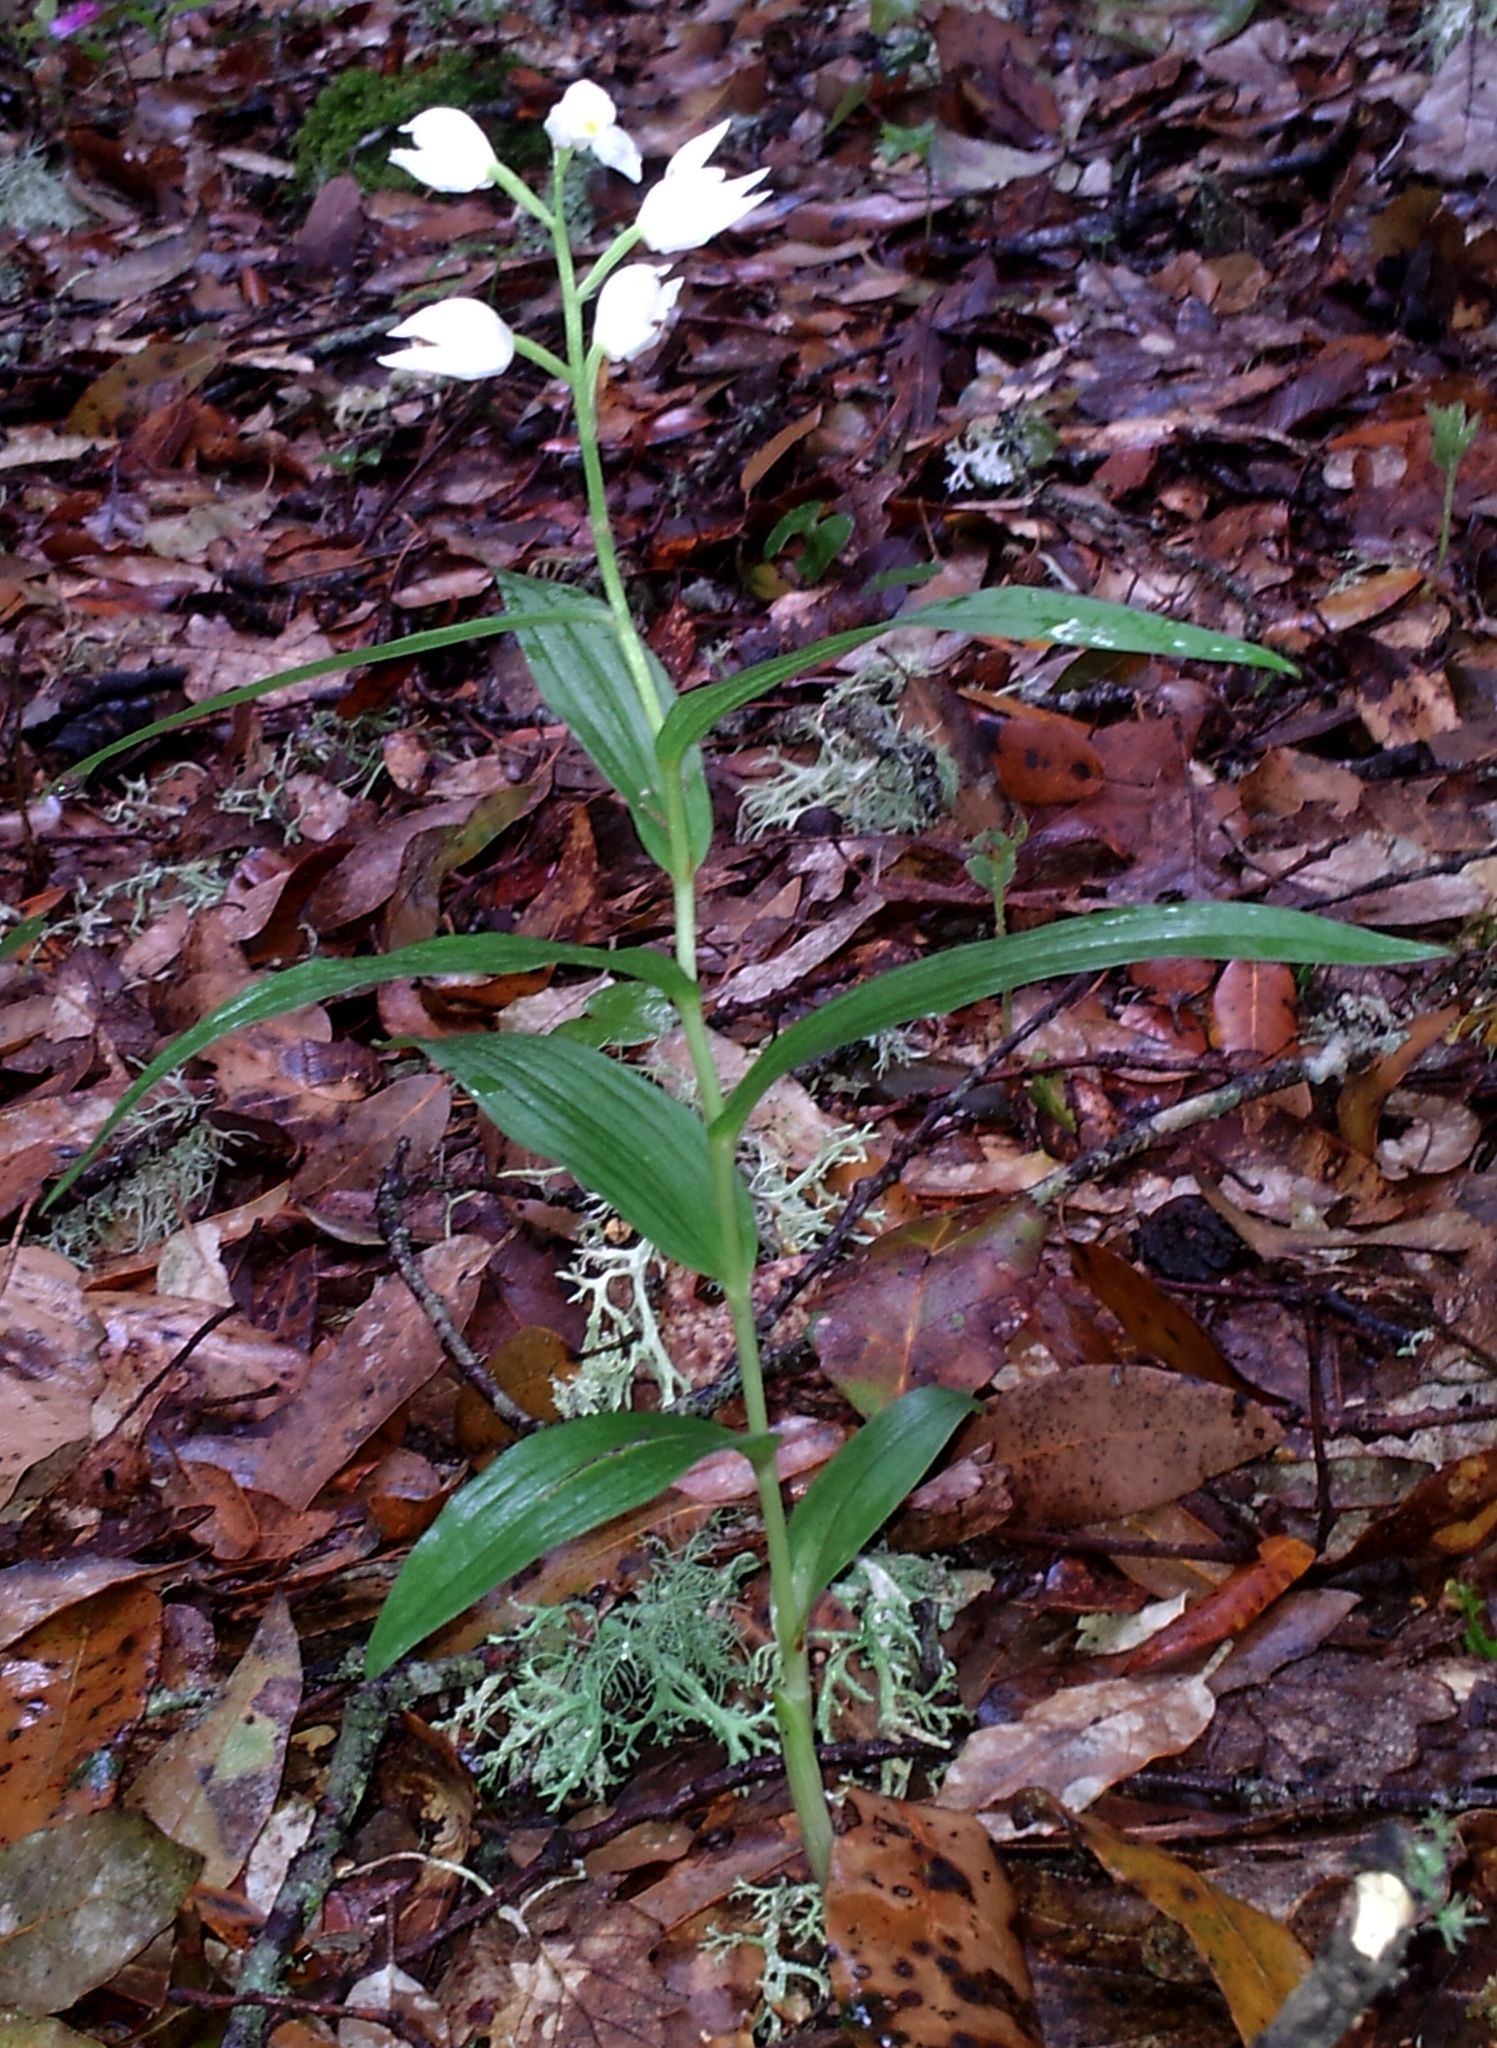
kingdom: Plantae
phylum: Tracheophyta
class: Liliopsida
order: Asparagales
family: Orchidaceae
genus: Cephalanthera
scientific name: Cephalanthera longifolia
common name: Narrow-leaved helleborine
